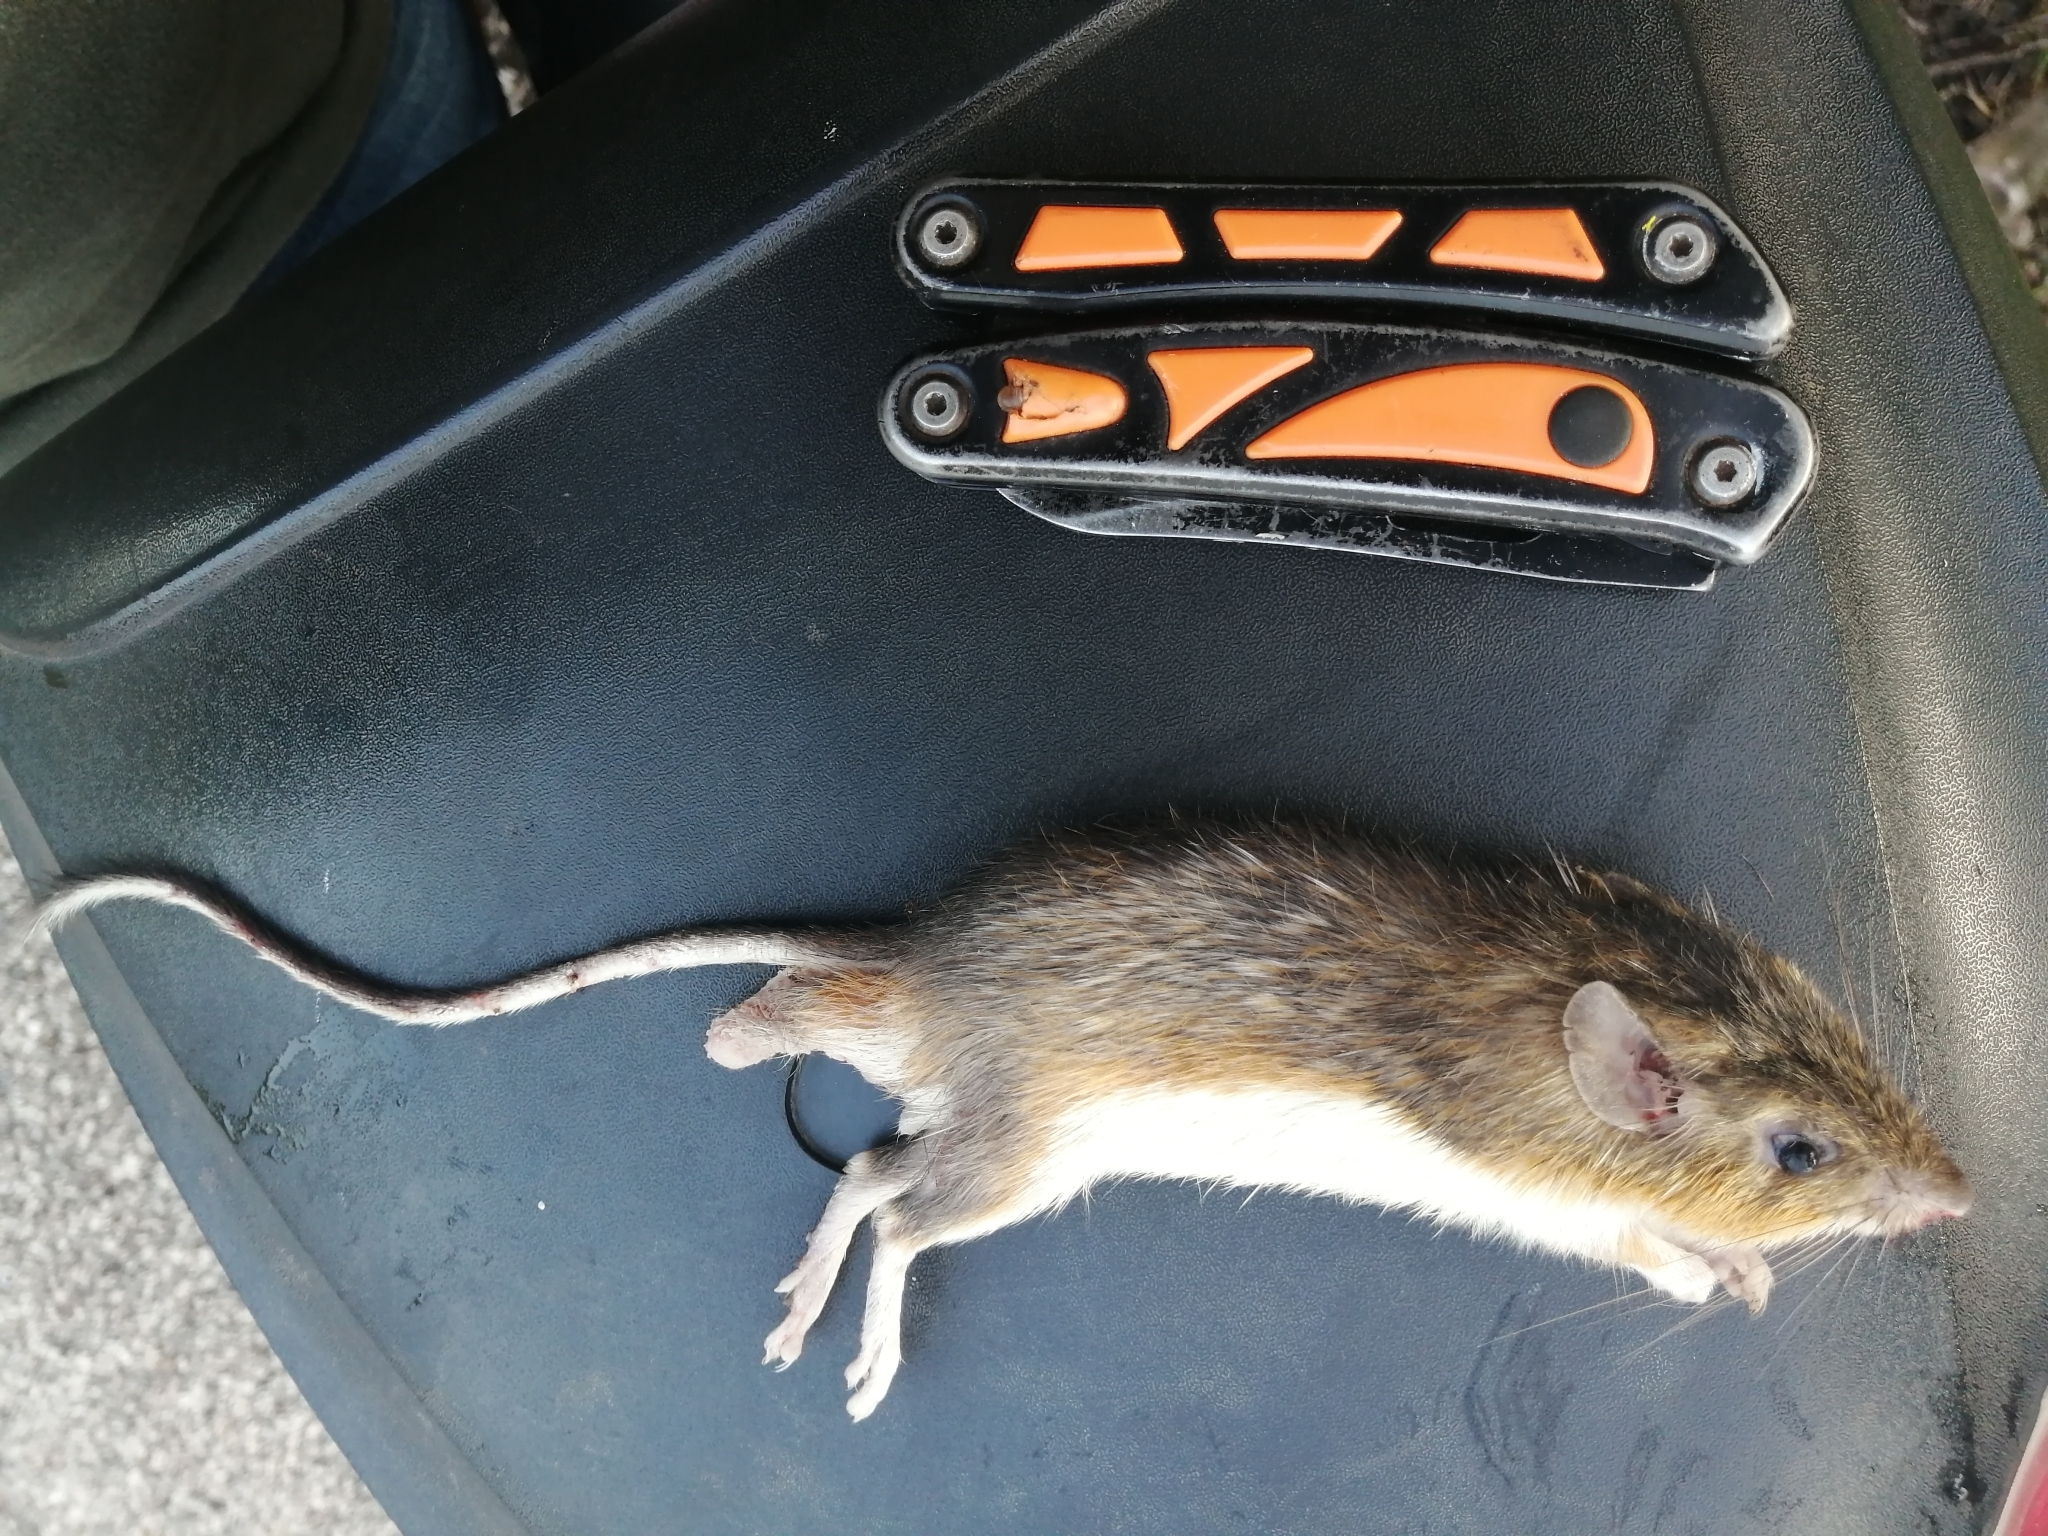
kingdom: Animalia
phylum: Chordata
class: Mammalia
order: Rodentia
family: Heteromyidae
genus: Heteromys
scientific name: Heteromys gaumeri
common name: Gaumer's spiny pocket mouse
